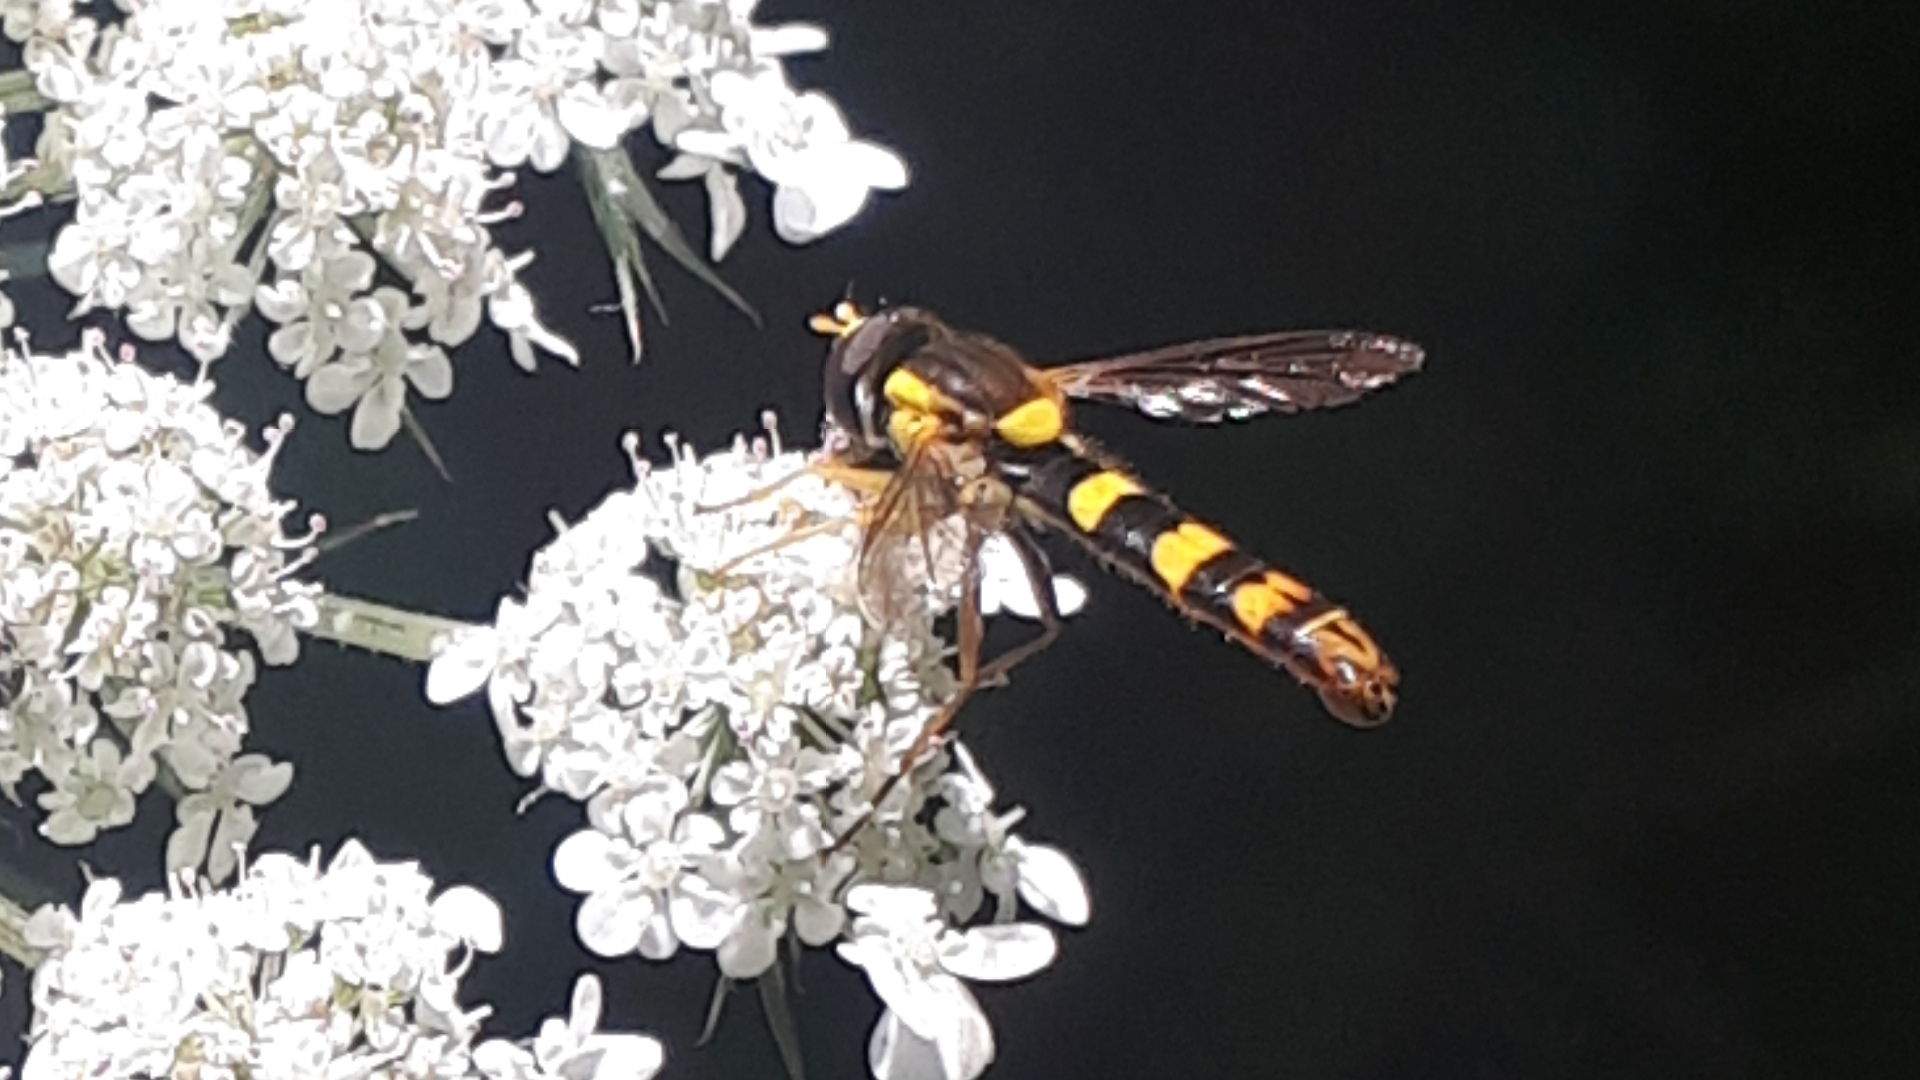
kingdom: Animalia
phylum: Arthropoda
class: Insecta
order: Diptera
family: Syrphidae
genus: Sphaerophoria
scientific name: Sphaerophoria scripta
